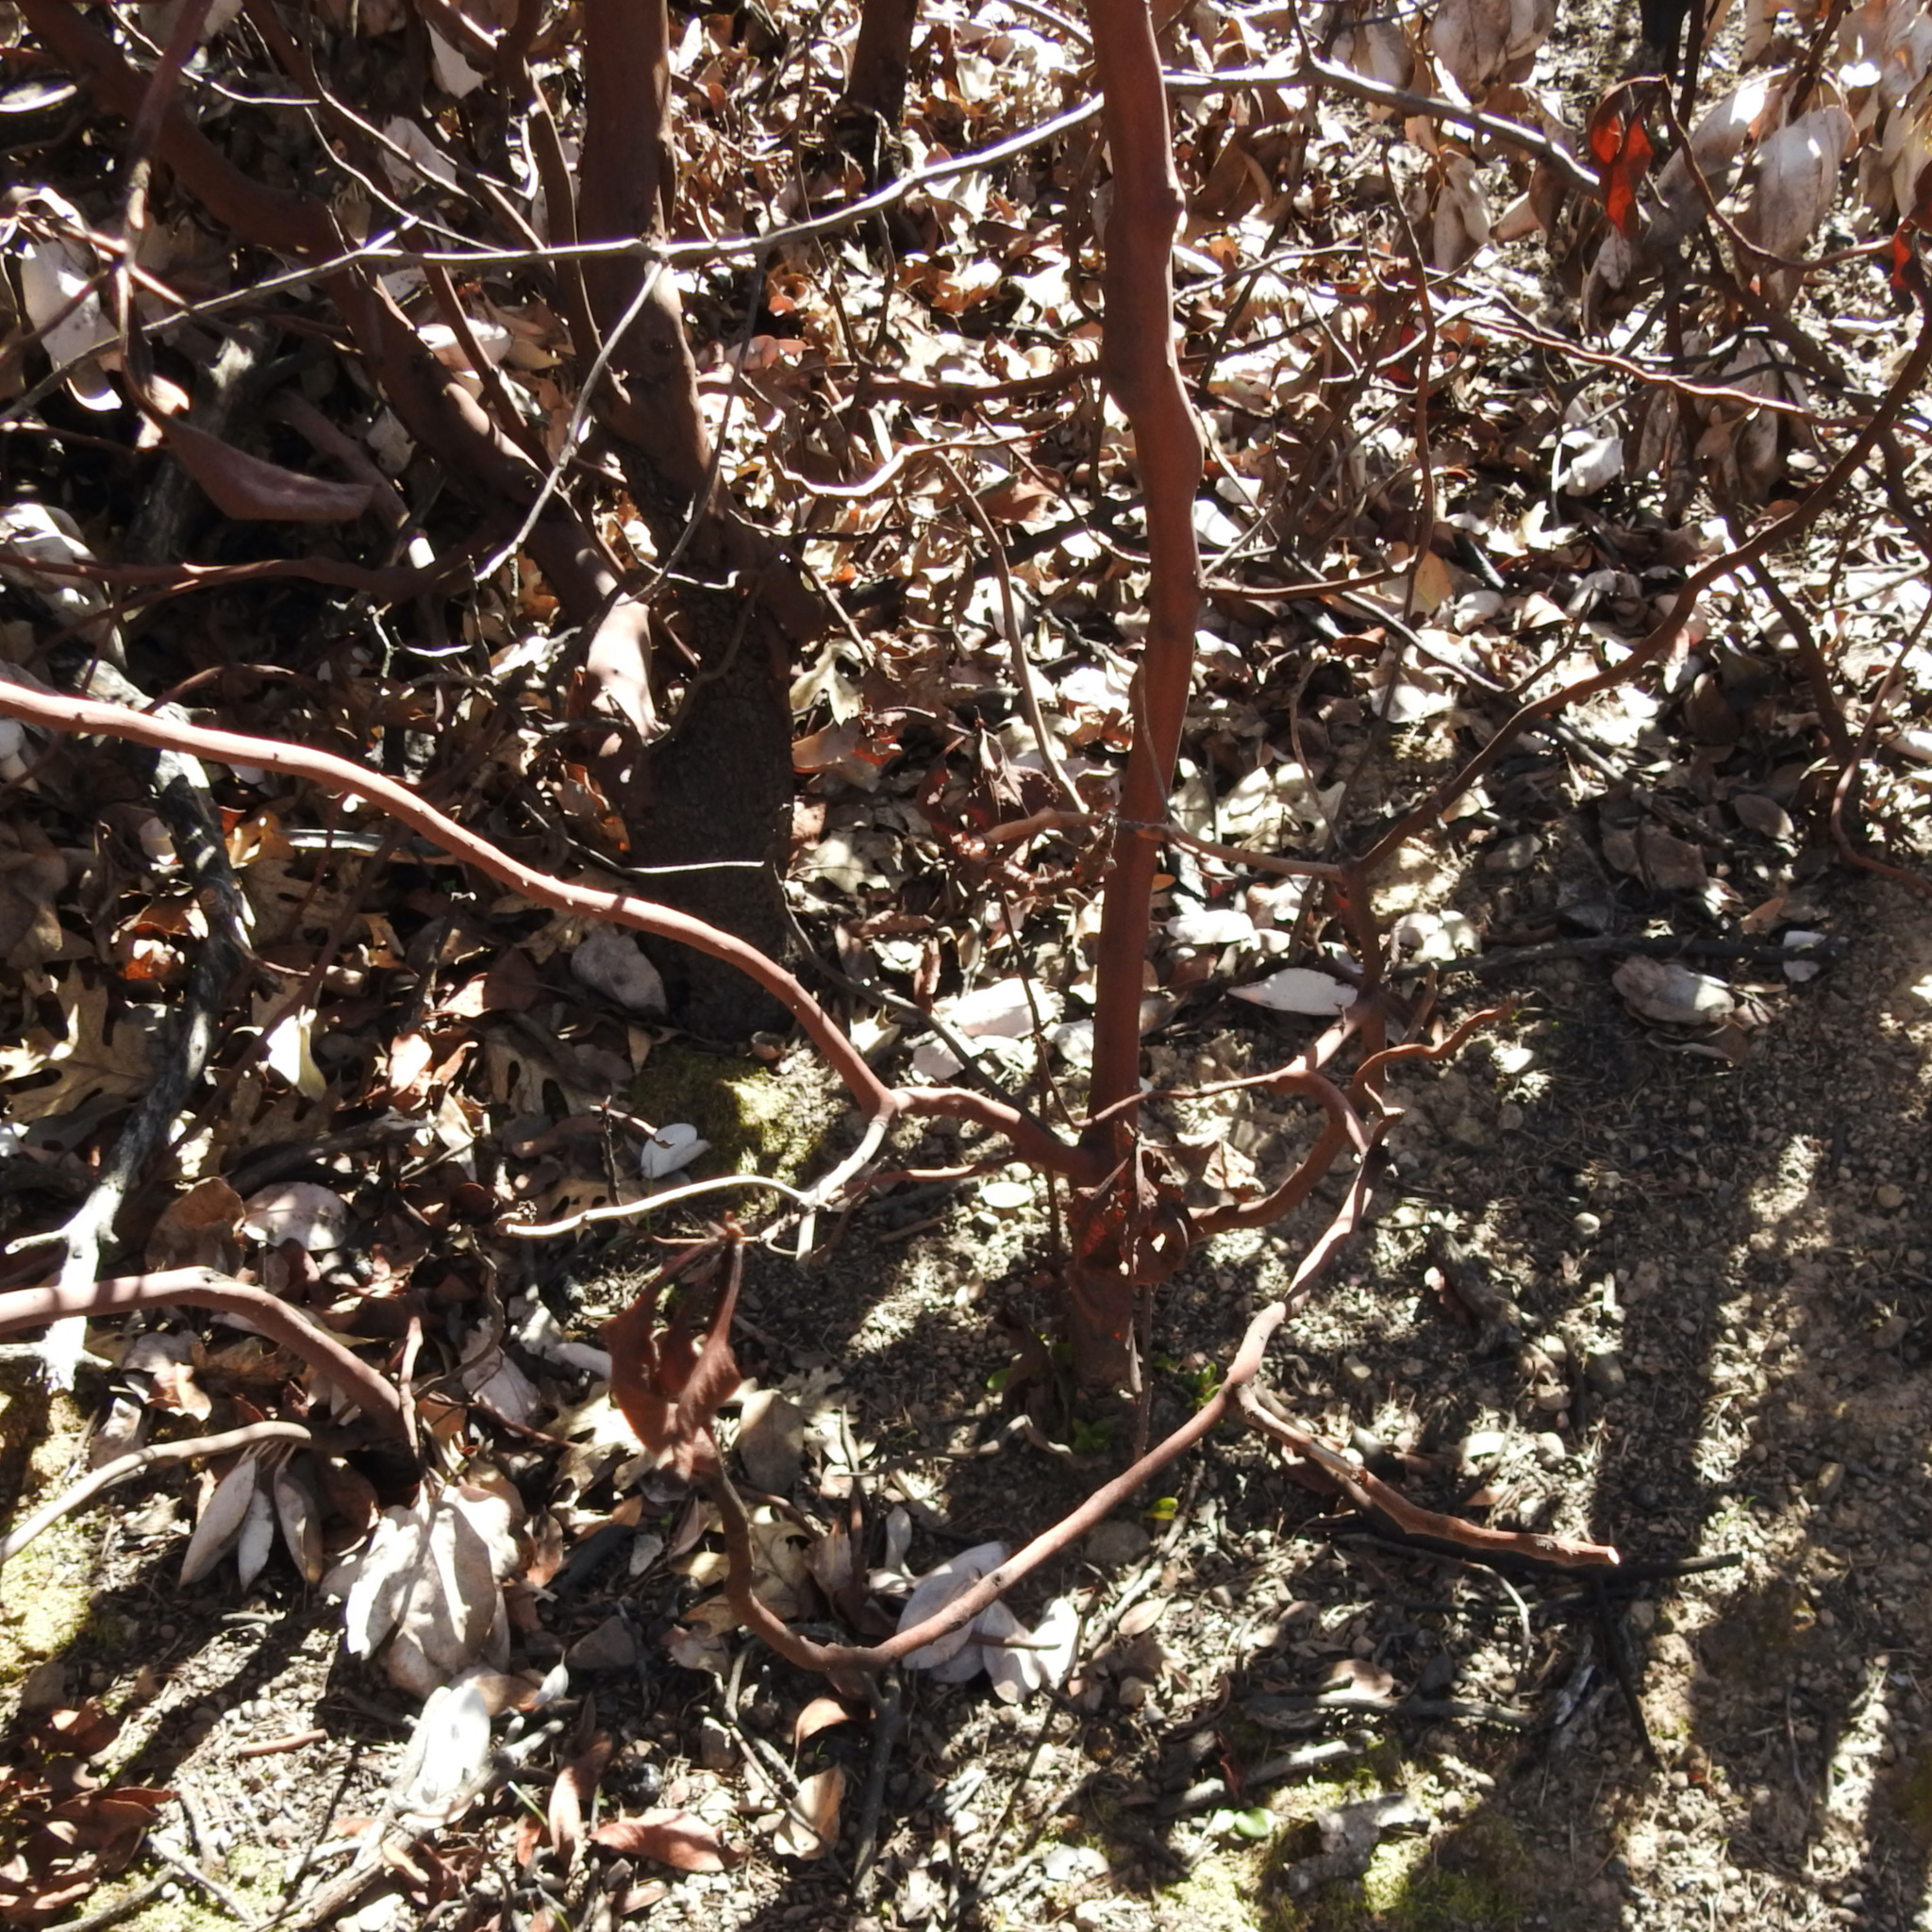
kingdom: Plantae
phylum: Tracheophyta
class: Magnoliopsida
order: Ericales
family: Ericaceae
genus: Arbutus
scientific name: Arbutus menziesii
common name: Pacific madrone
